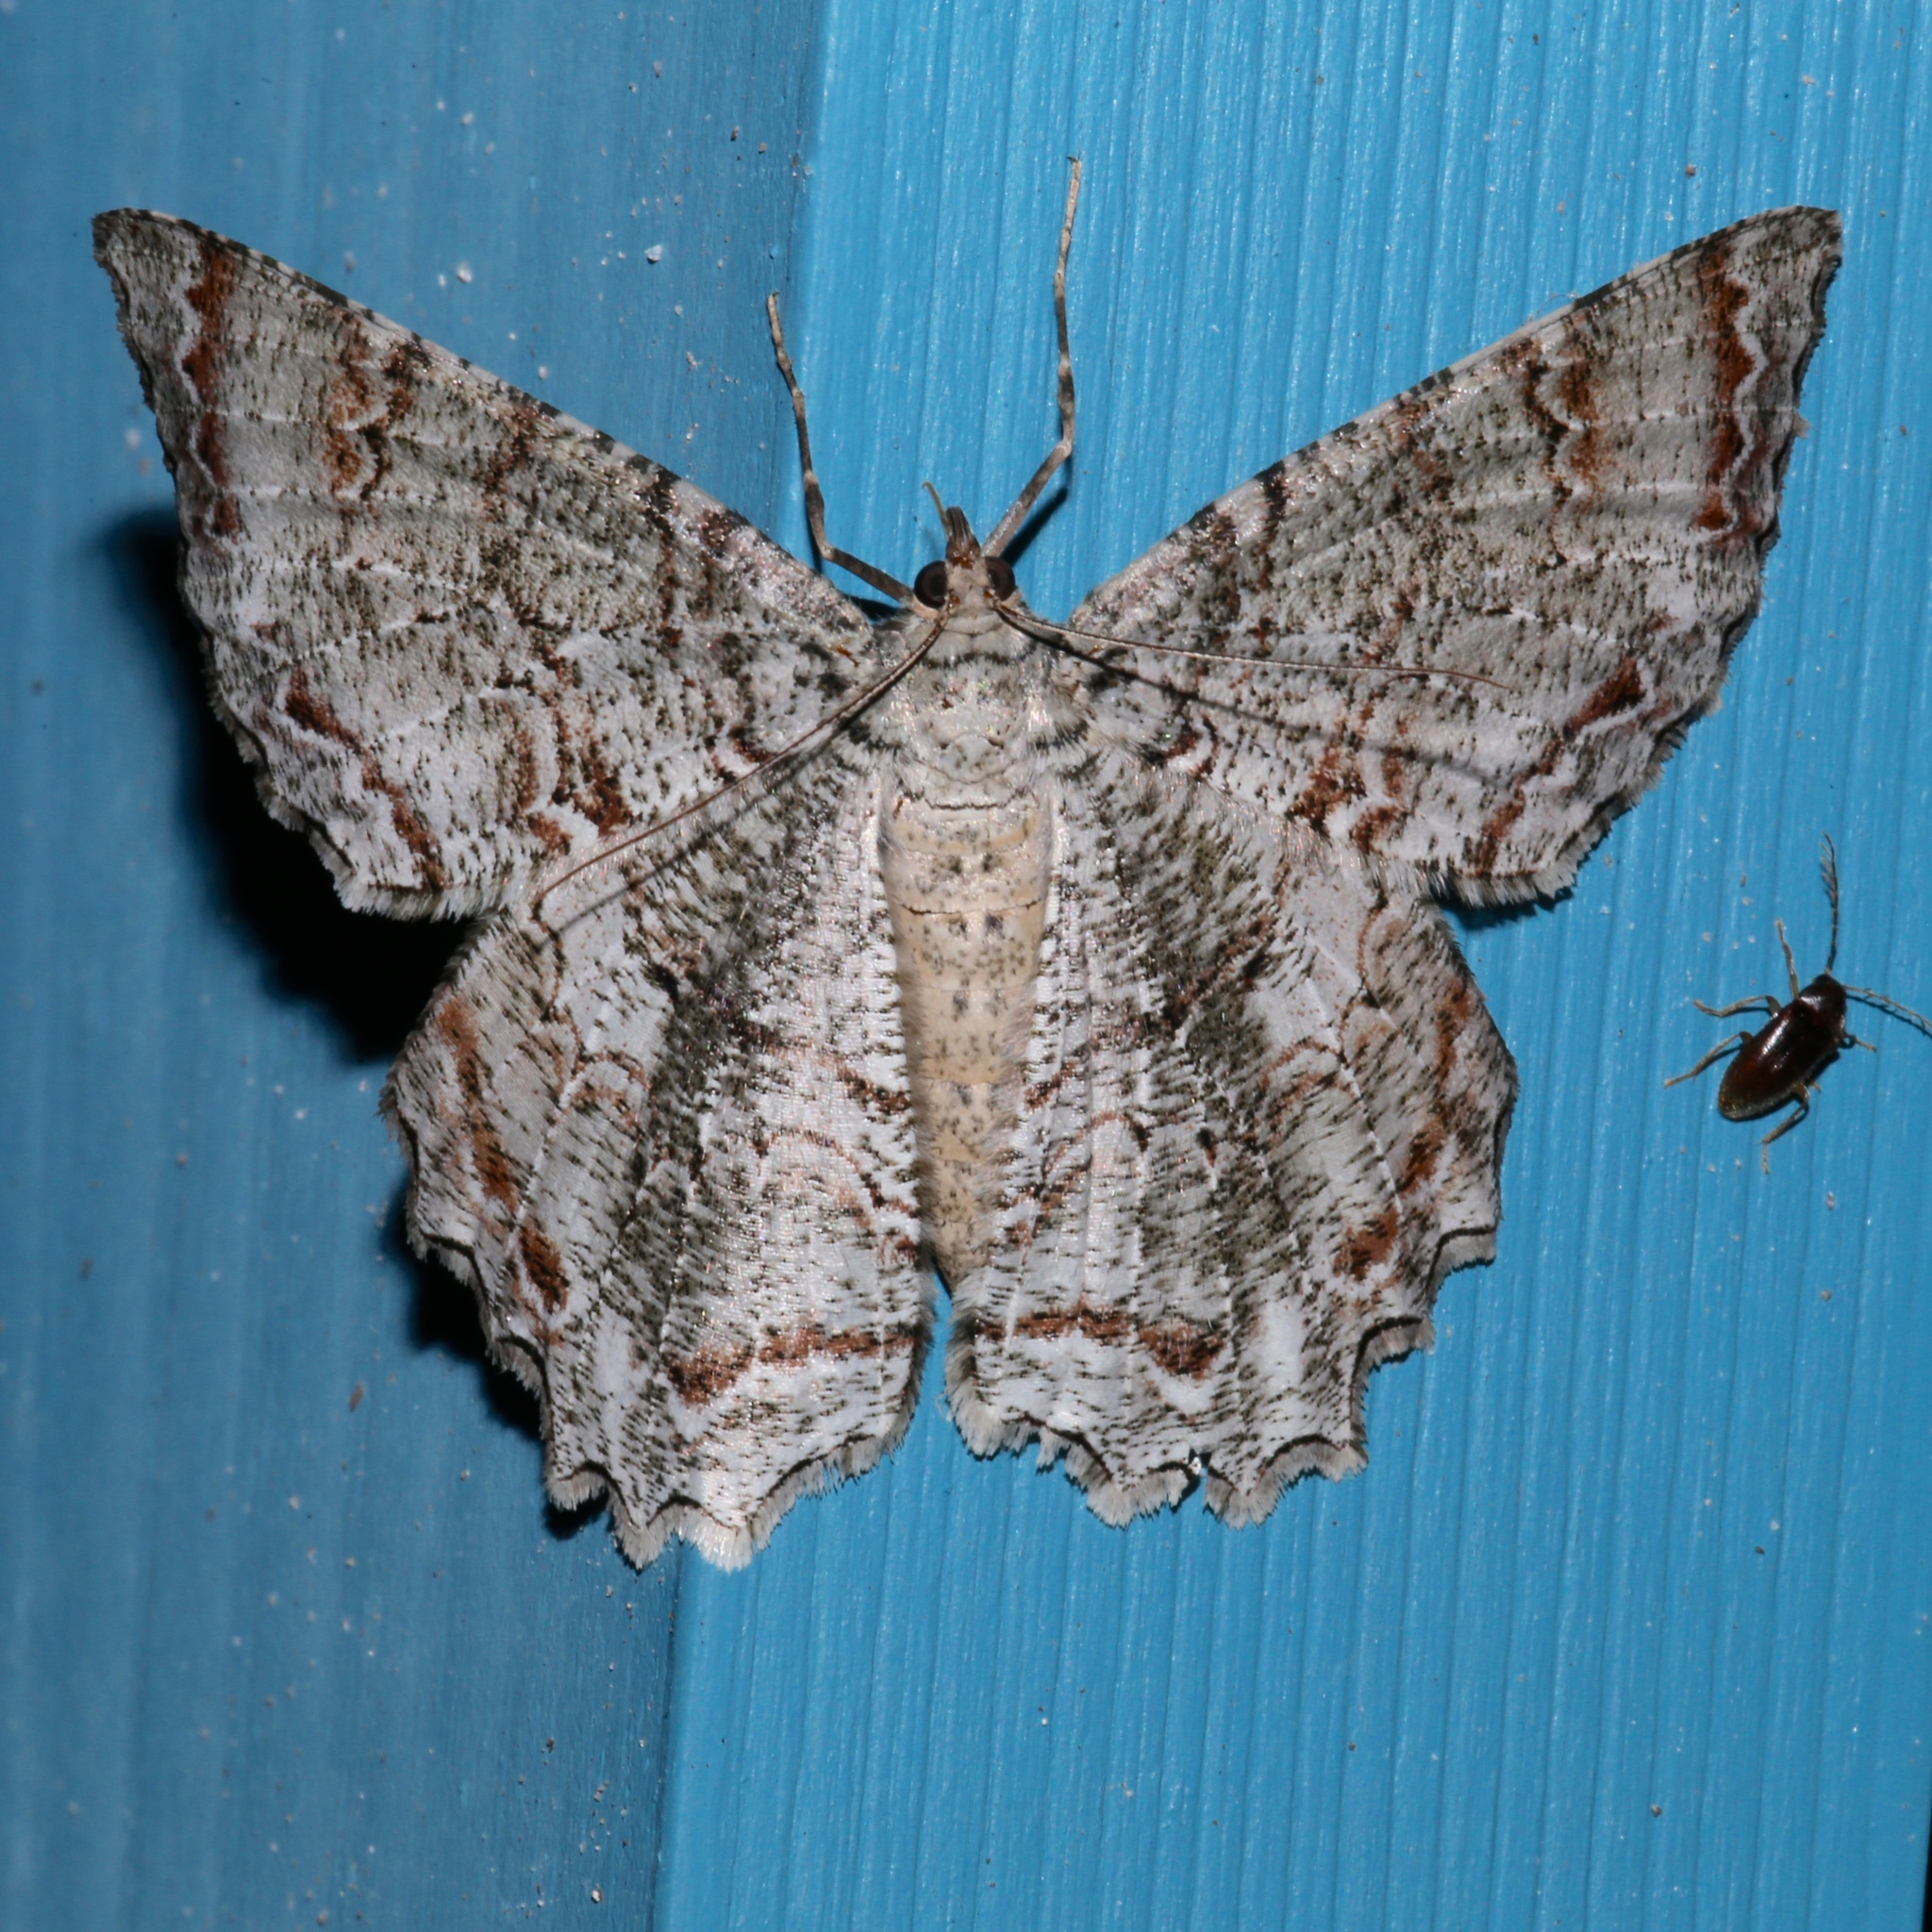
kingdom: Animalia
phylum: Arthropoda
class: Insecta
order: Lepidoptera
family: Geometridae
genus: Epimecis
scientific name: Epimecis hortaria
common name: Tulip-tree beauty
